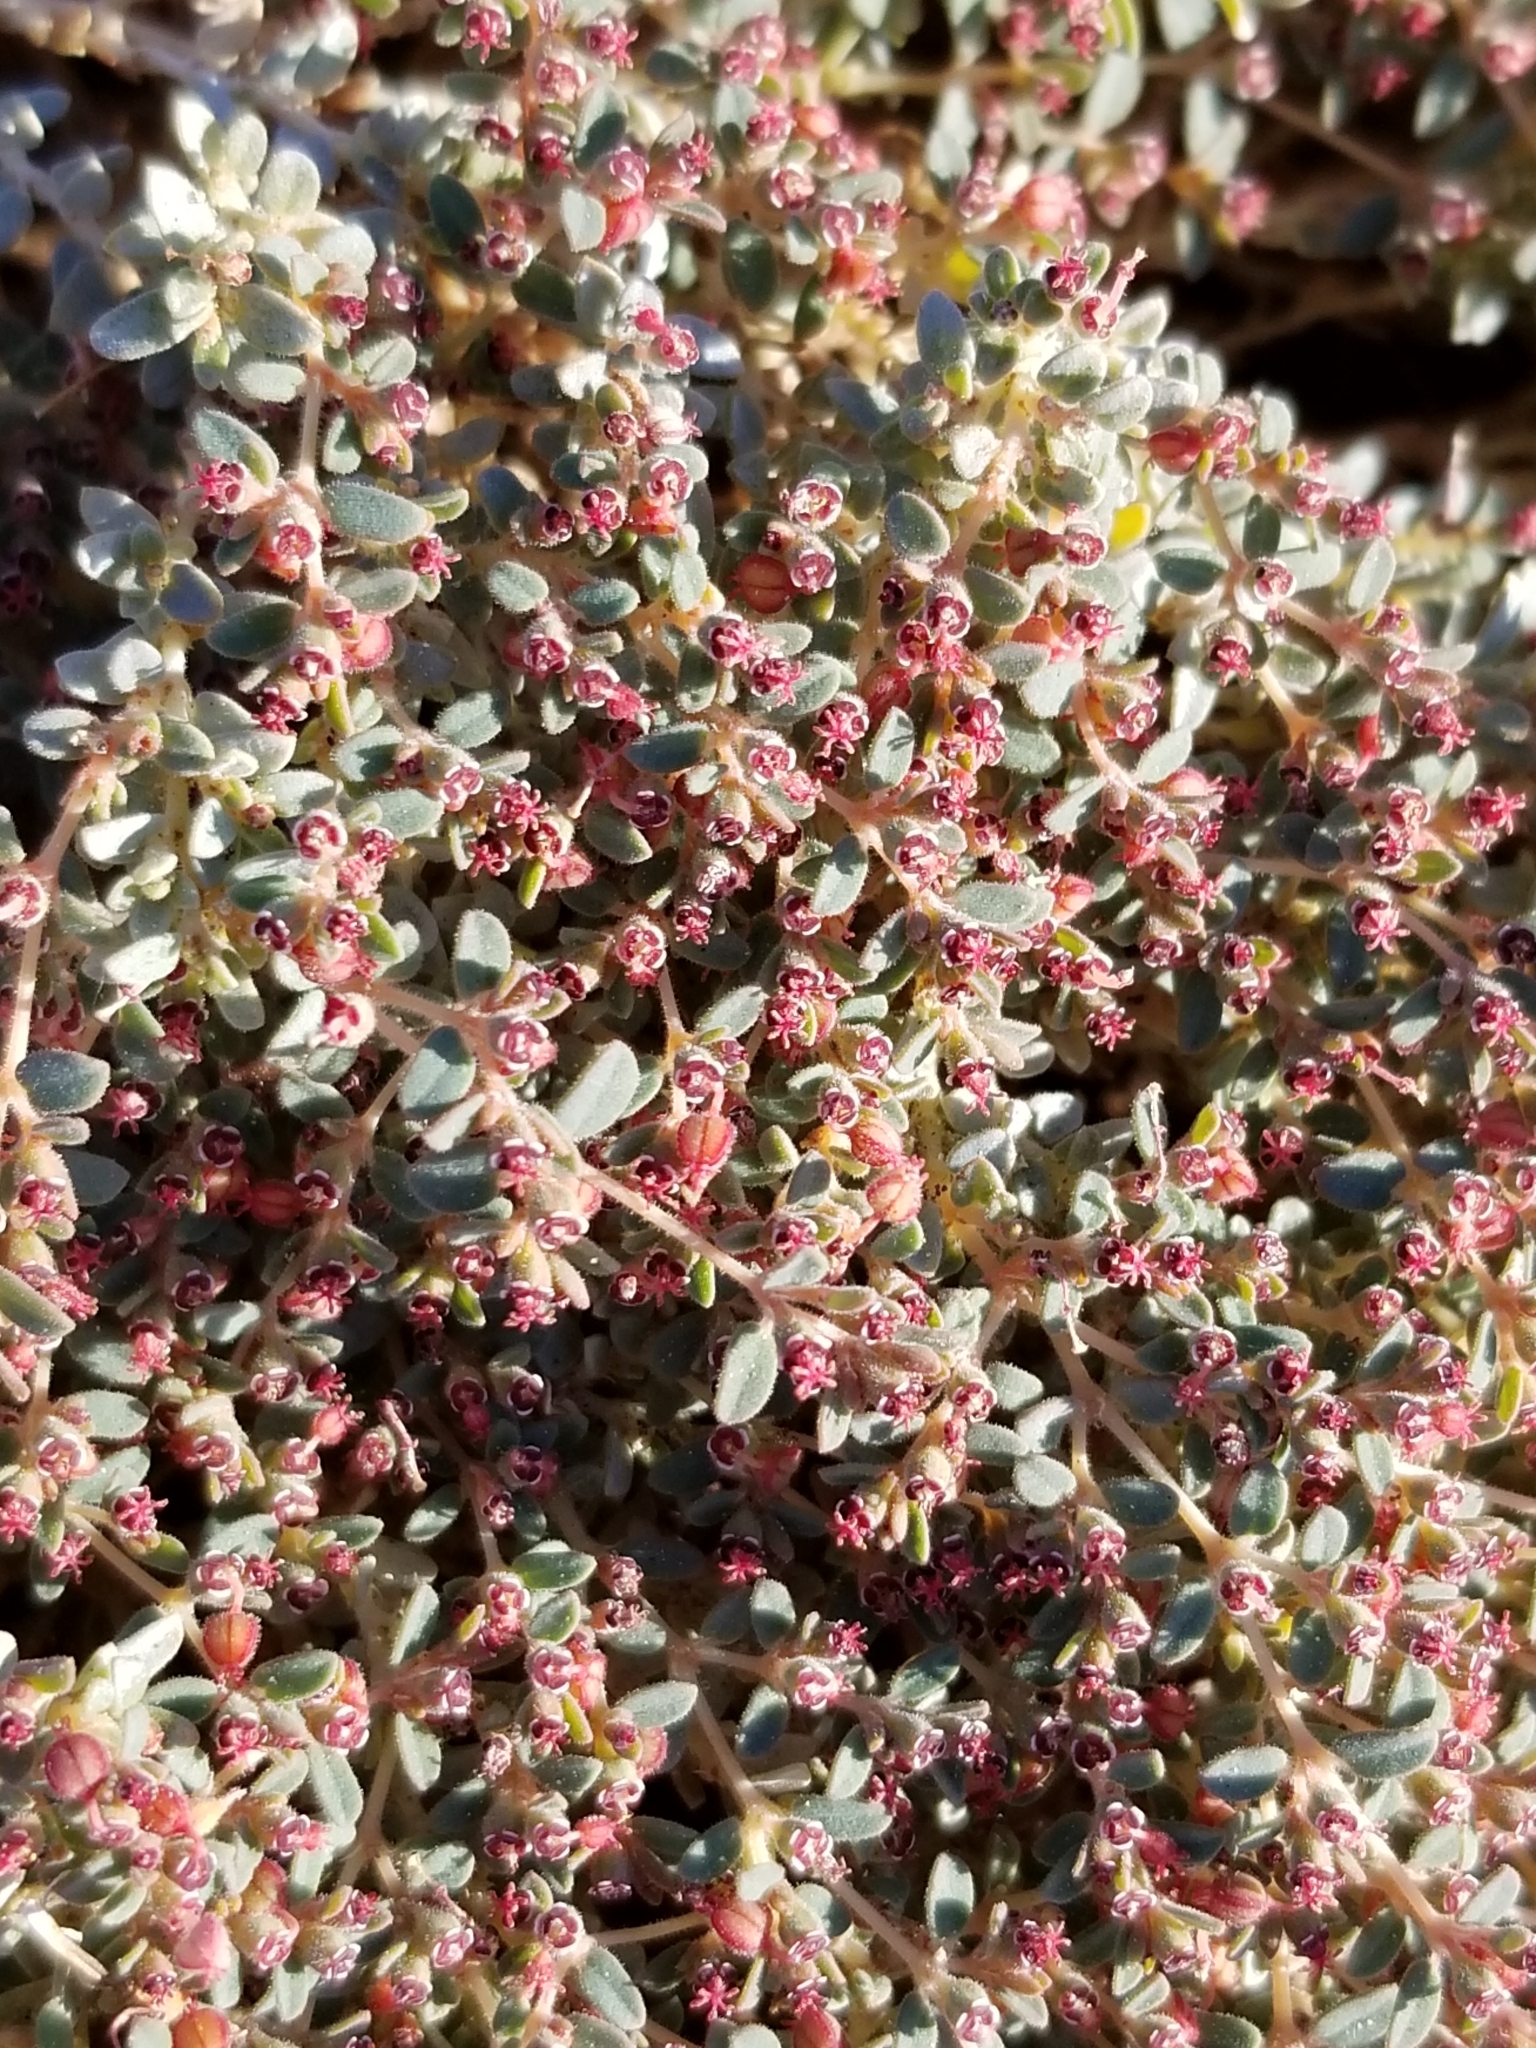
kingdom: Plantae
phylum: Tracheophyta
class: Magnoliopsida
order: Malpighiales
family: Euphorbiaceae
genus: Euphorbia
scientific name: Euphorbia polycarpa
